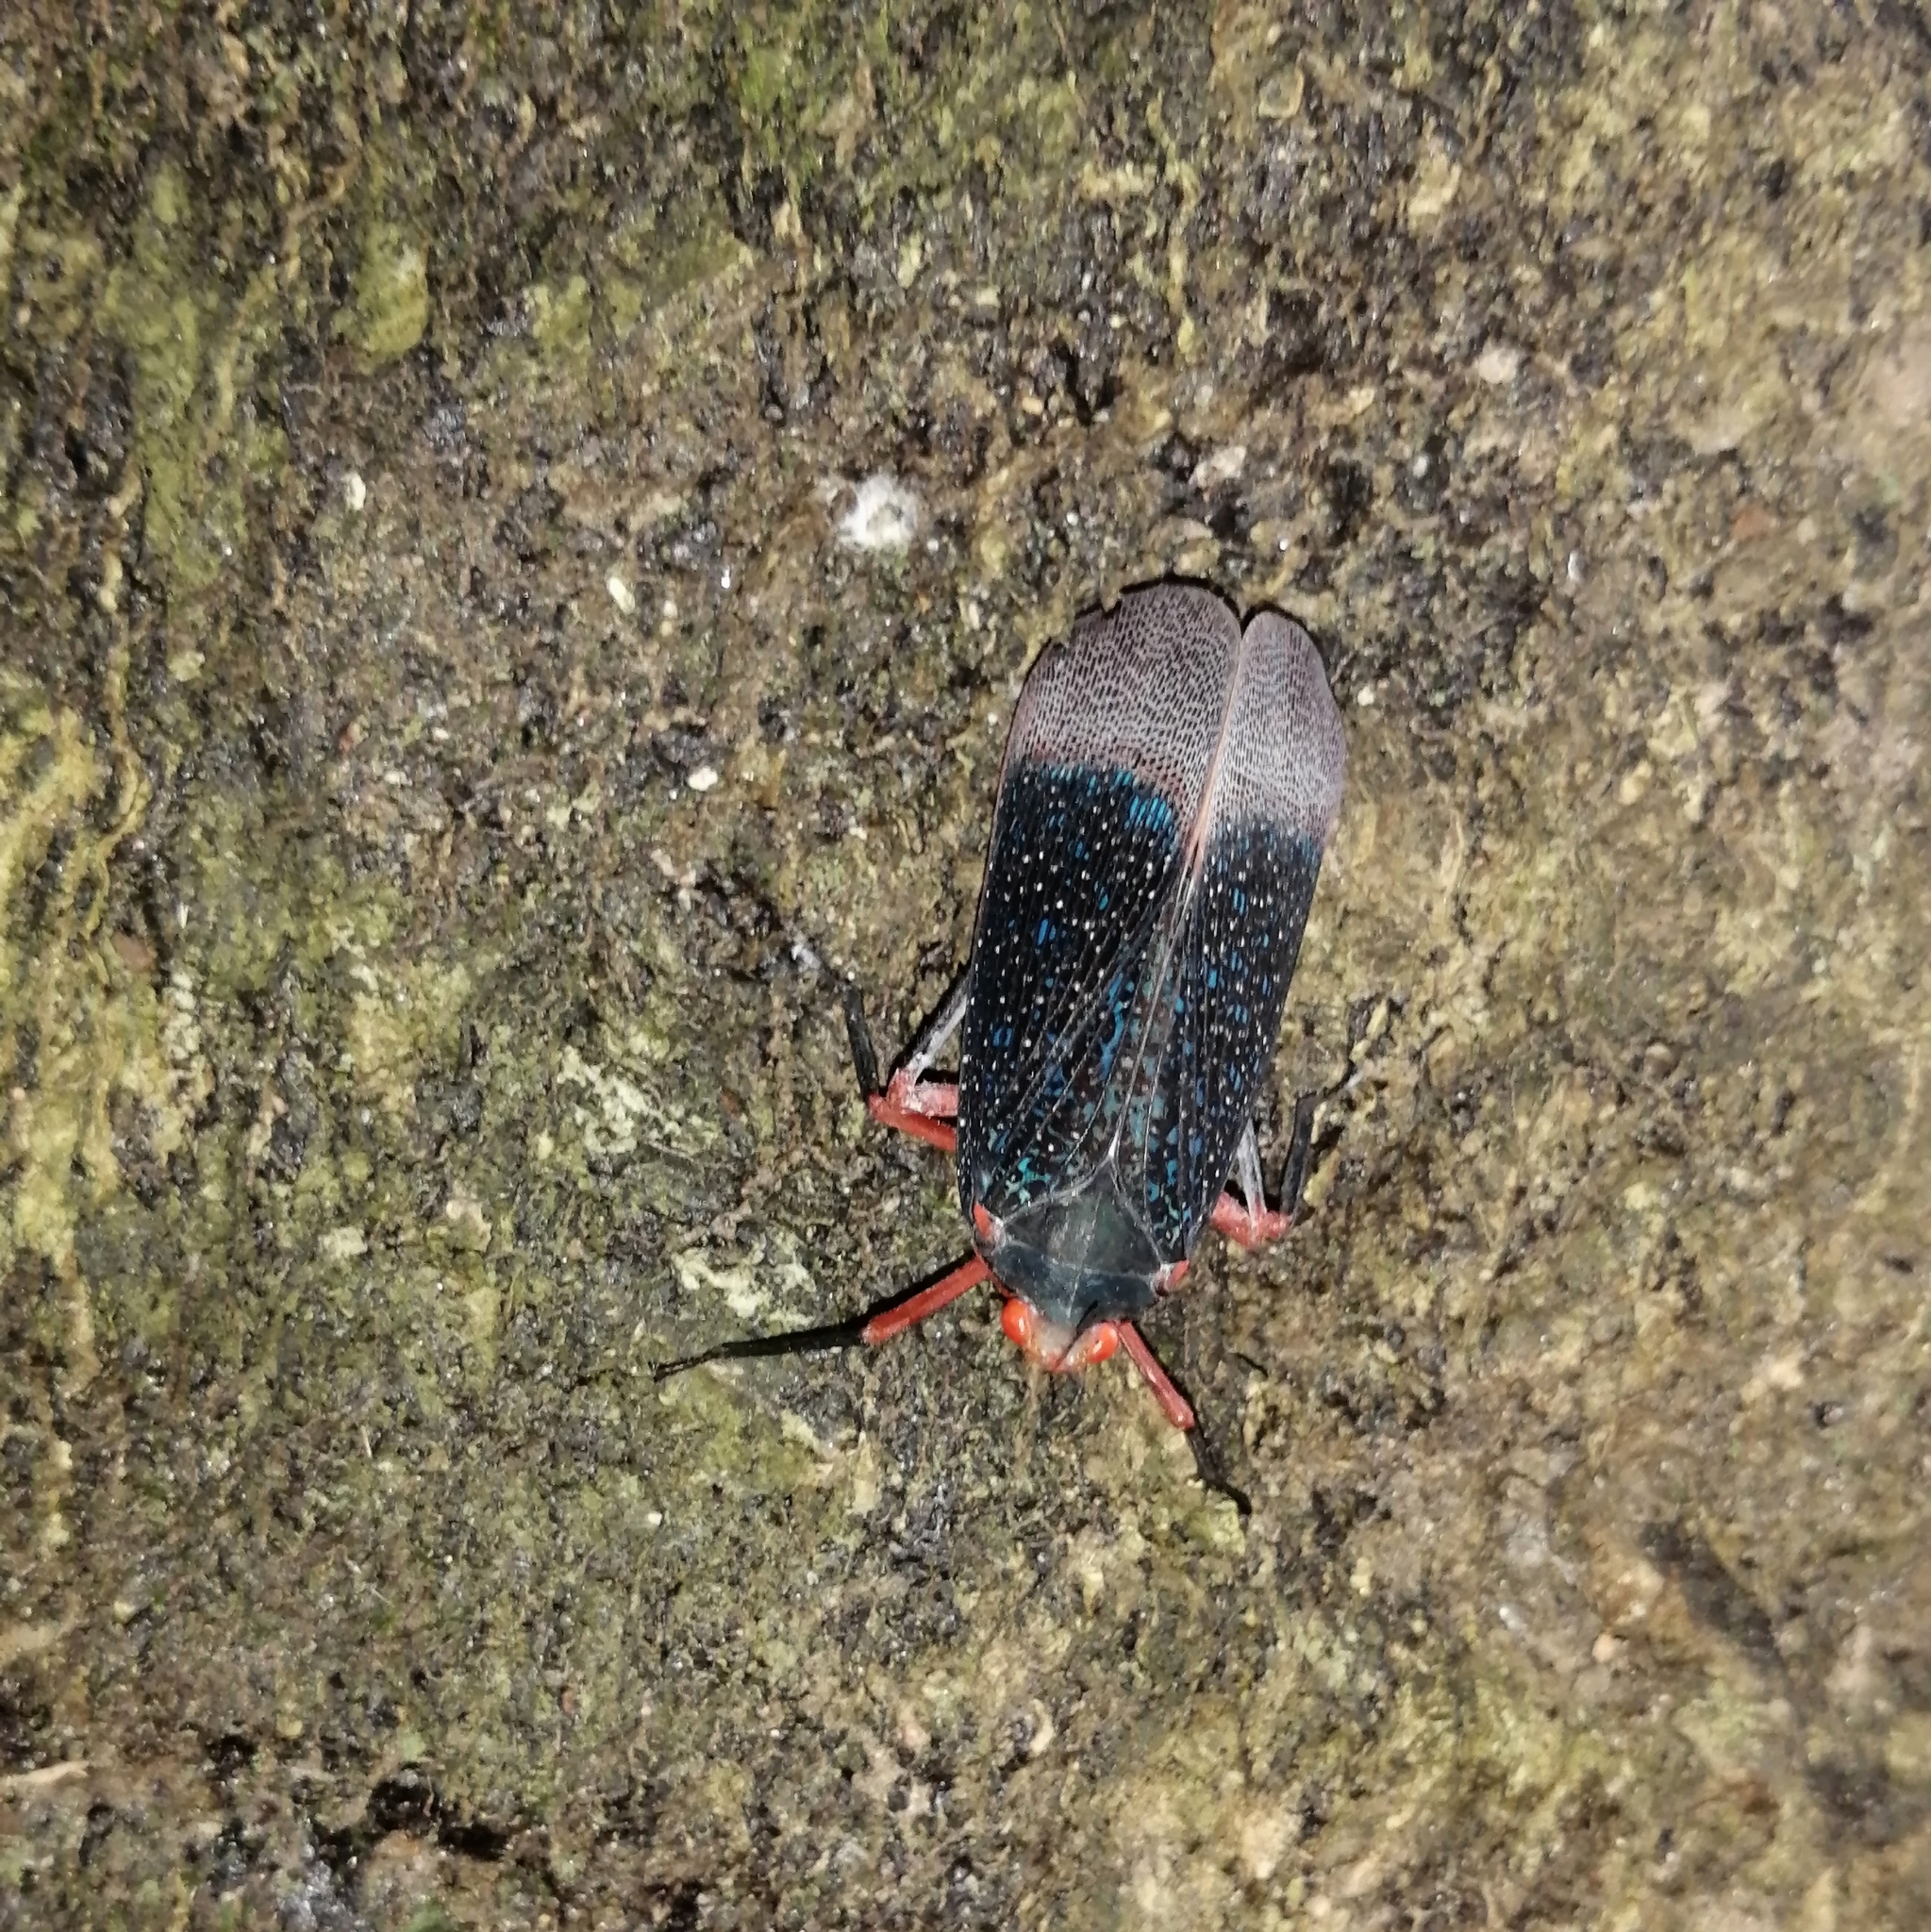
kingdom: Animalia
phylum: Arthropoda
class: Insecta
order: Hemiptera
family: Fulgoridae
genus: Kalidasa
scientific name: Kalidasa lanata
